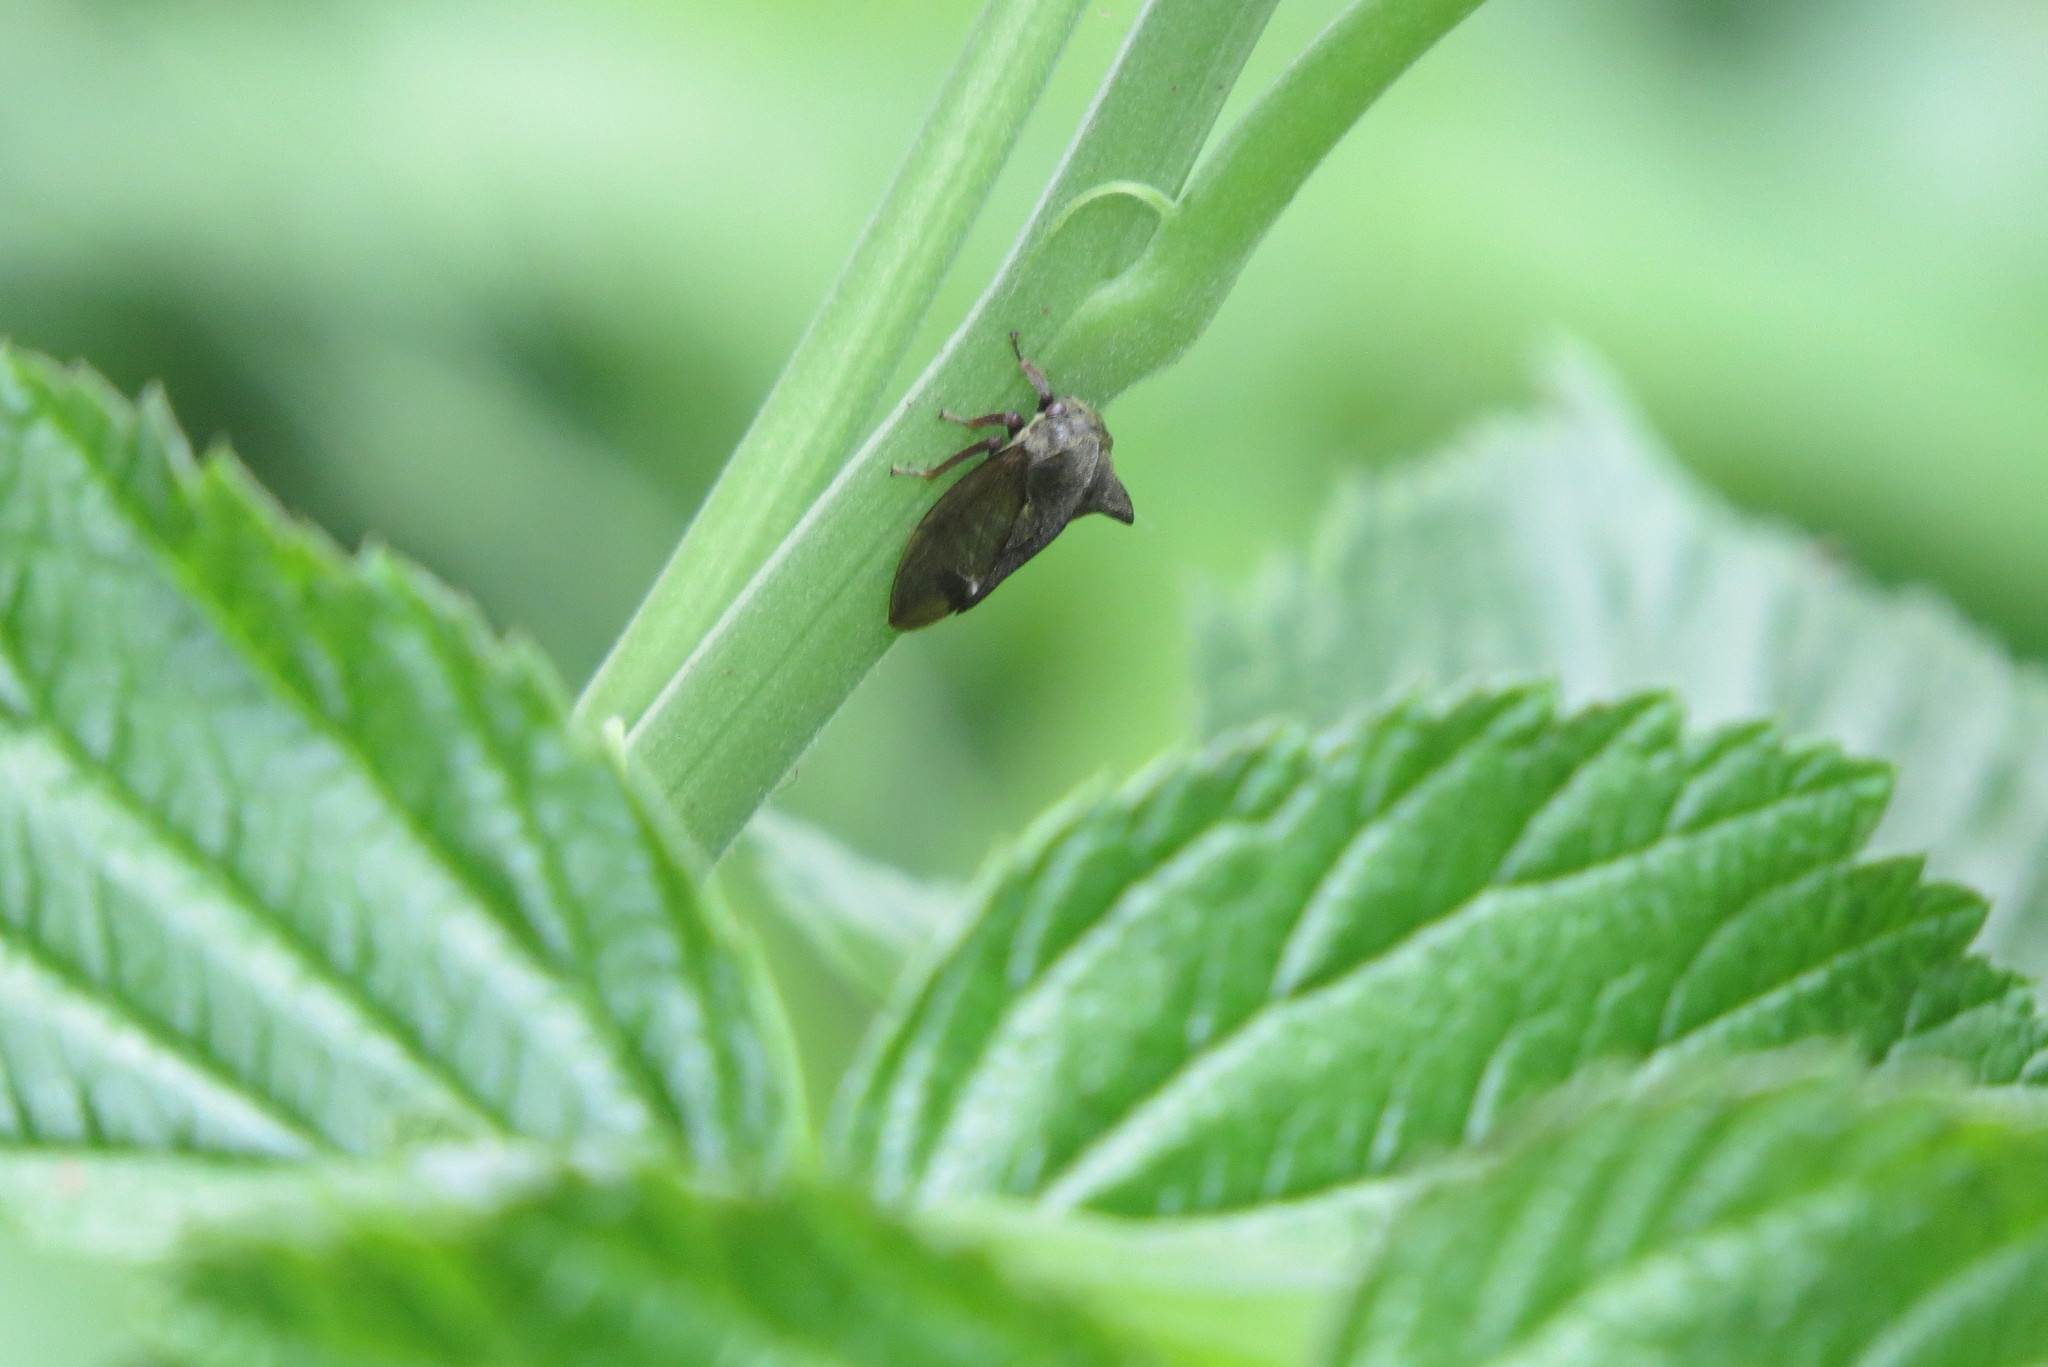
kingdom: Animalia
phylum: Arthropoda
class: Insecta
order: Hemiptera
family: Membracidae
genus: Centrotus
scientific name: Centrotus cornuta
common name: Treehopper
